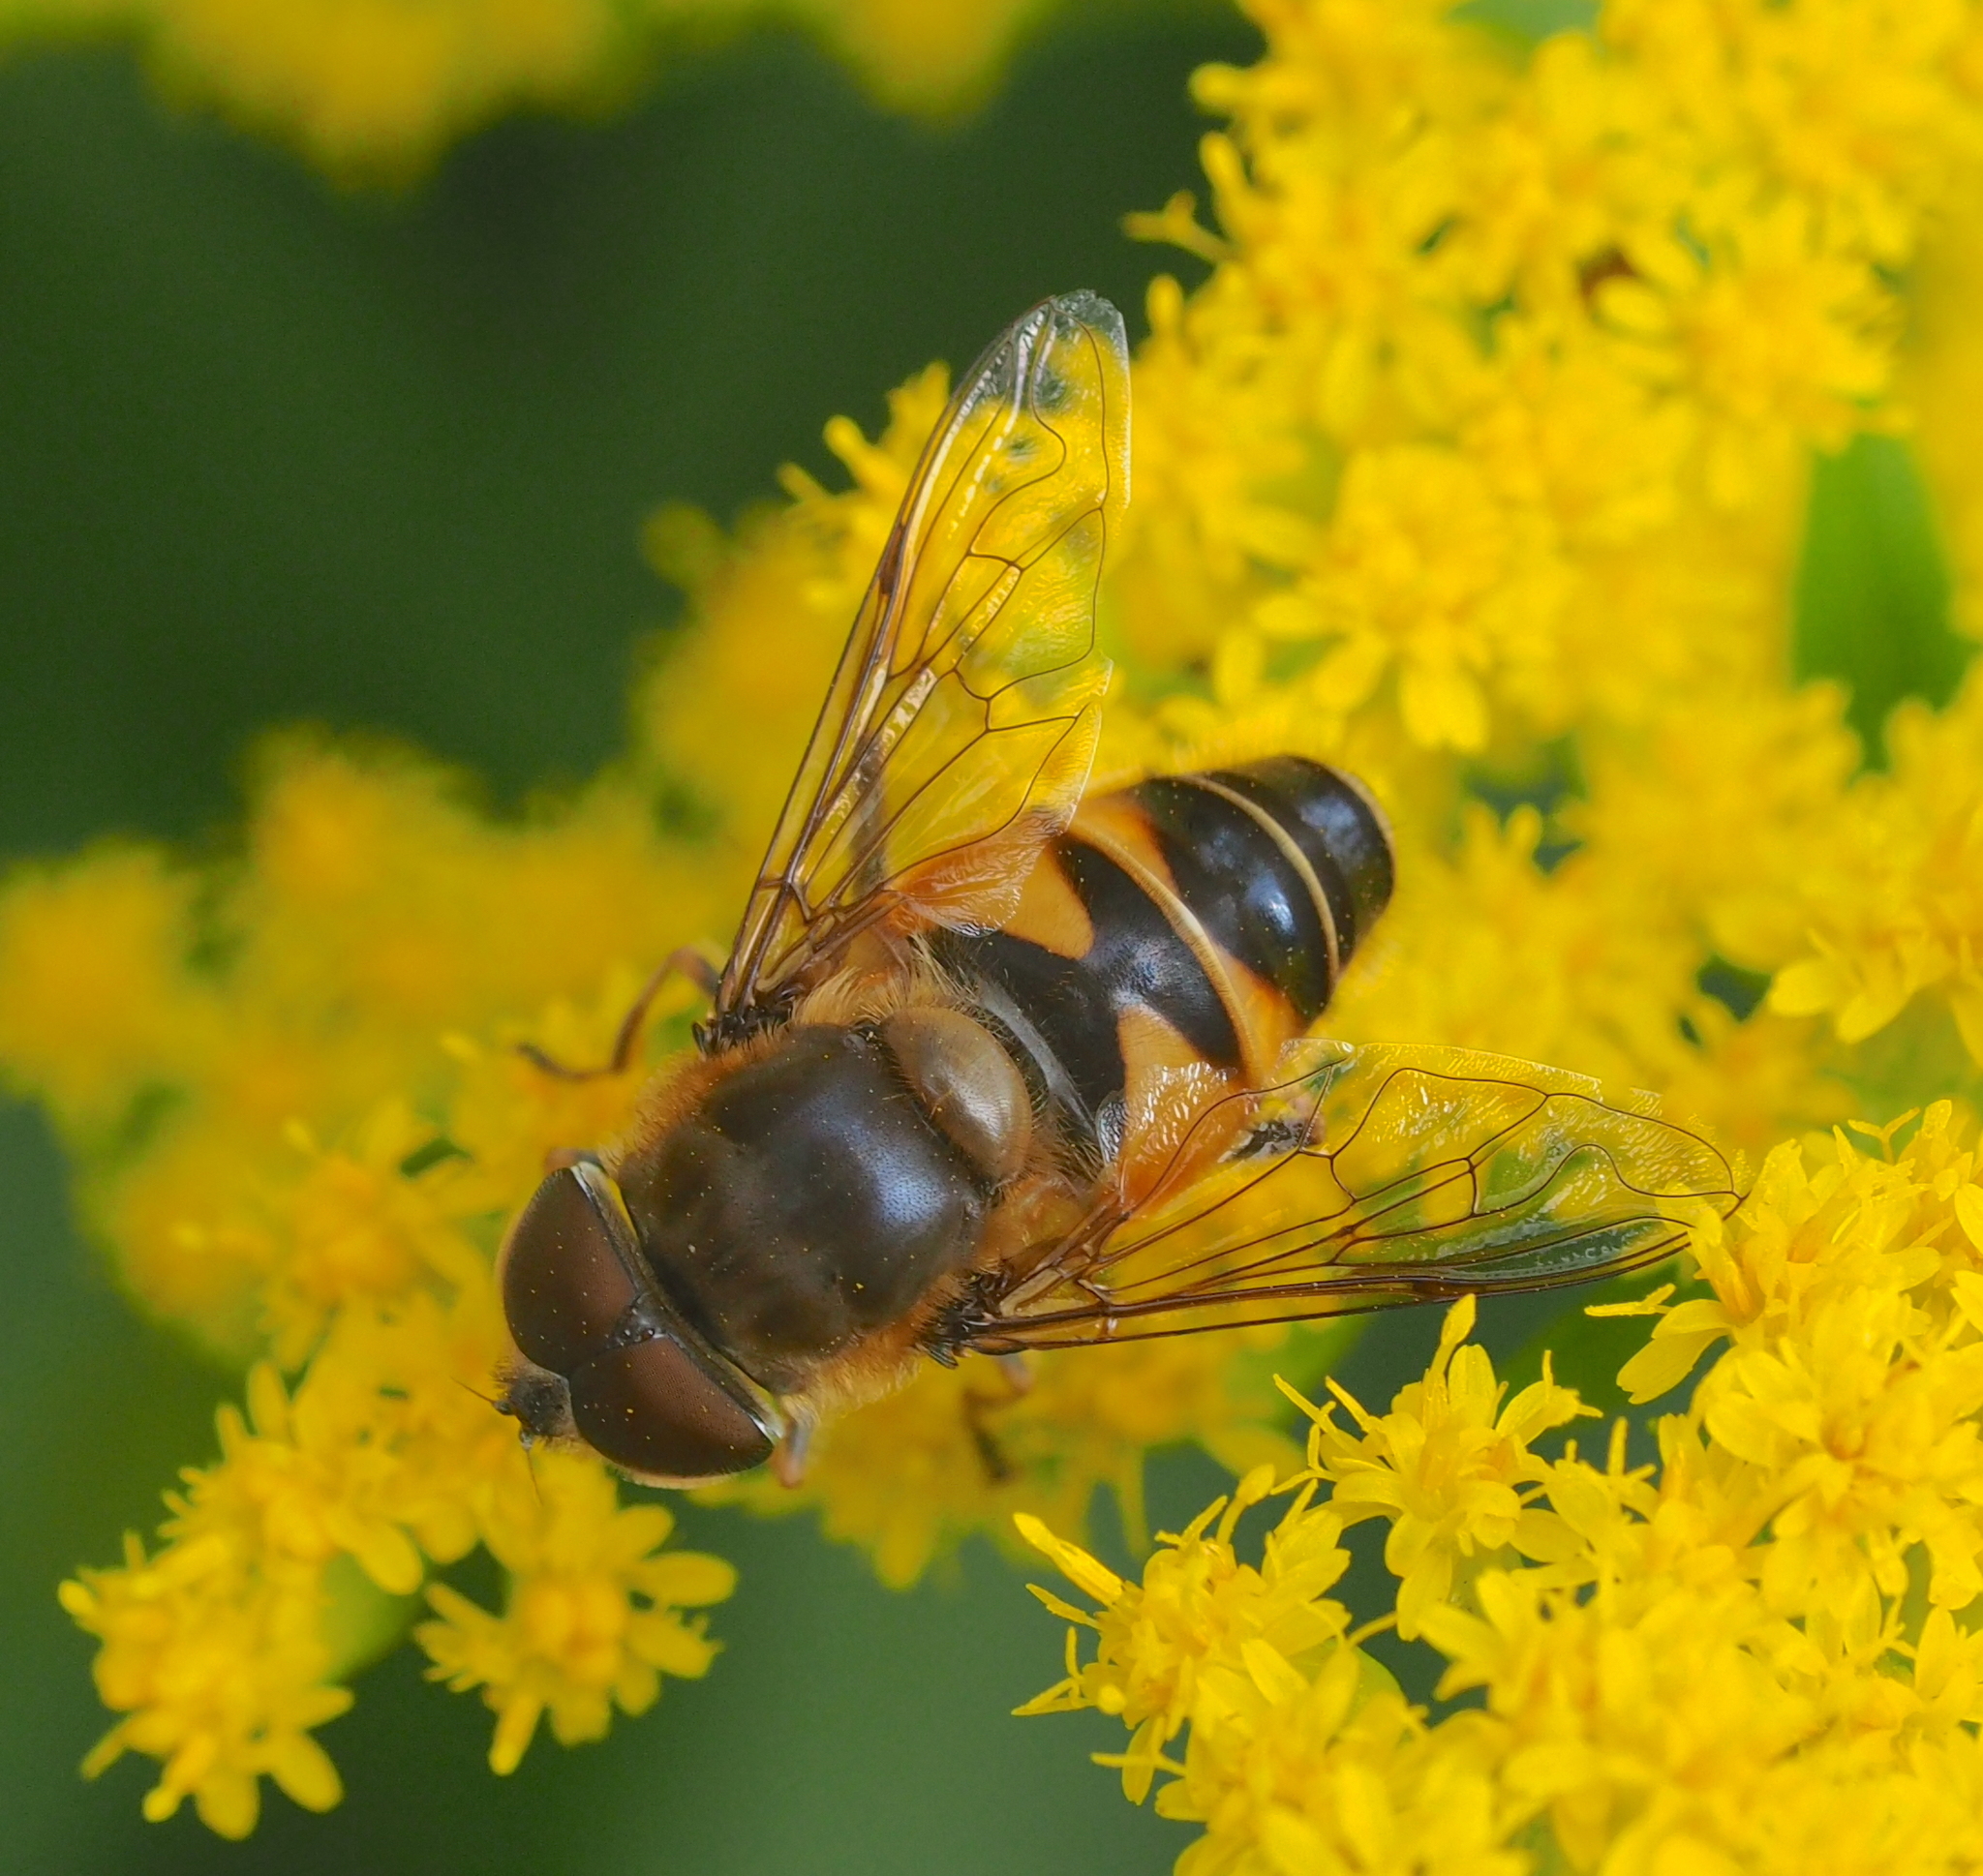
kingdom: Animalia
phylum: Arthropoda
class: Insecta
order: Diptera
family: Syrphidae
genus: Eristalis
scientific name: Eristalis pertinax
